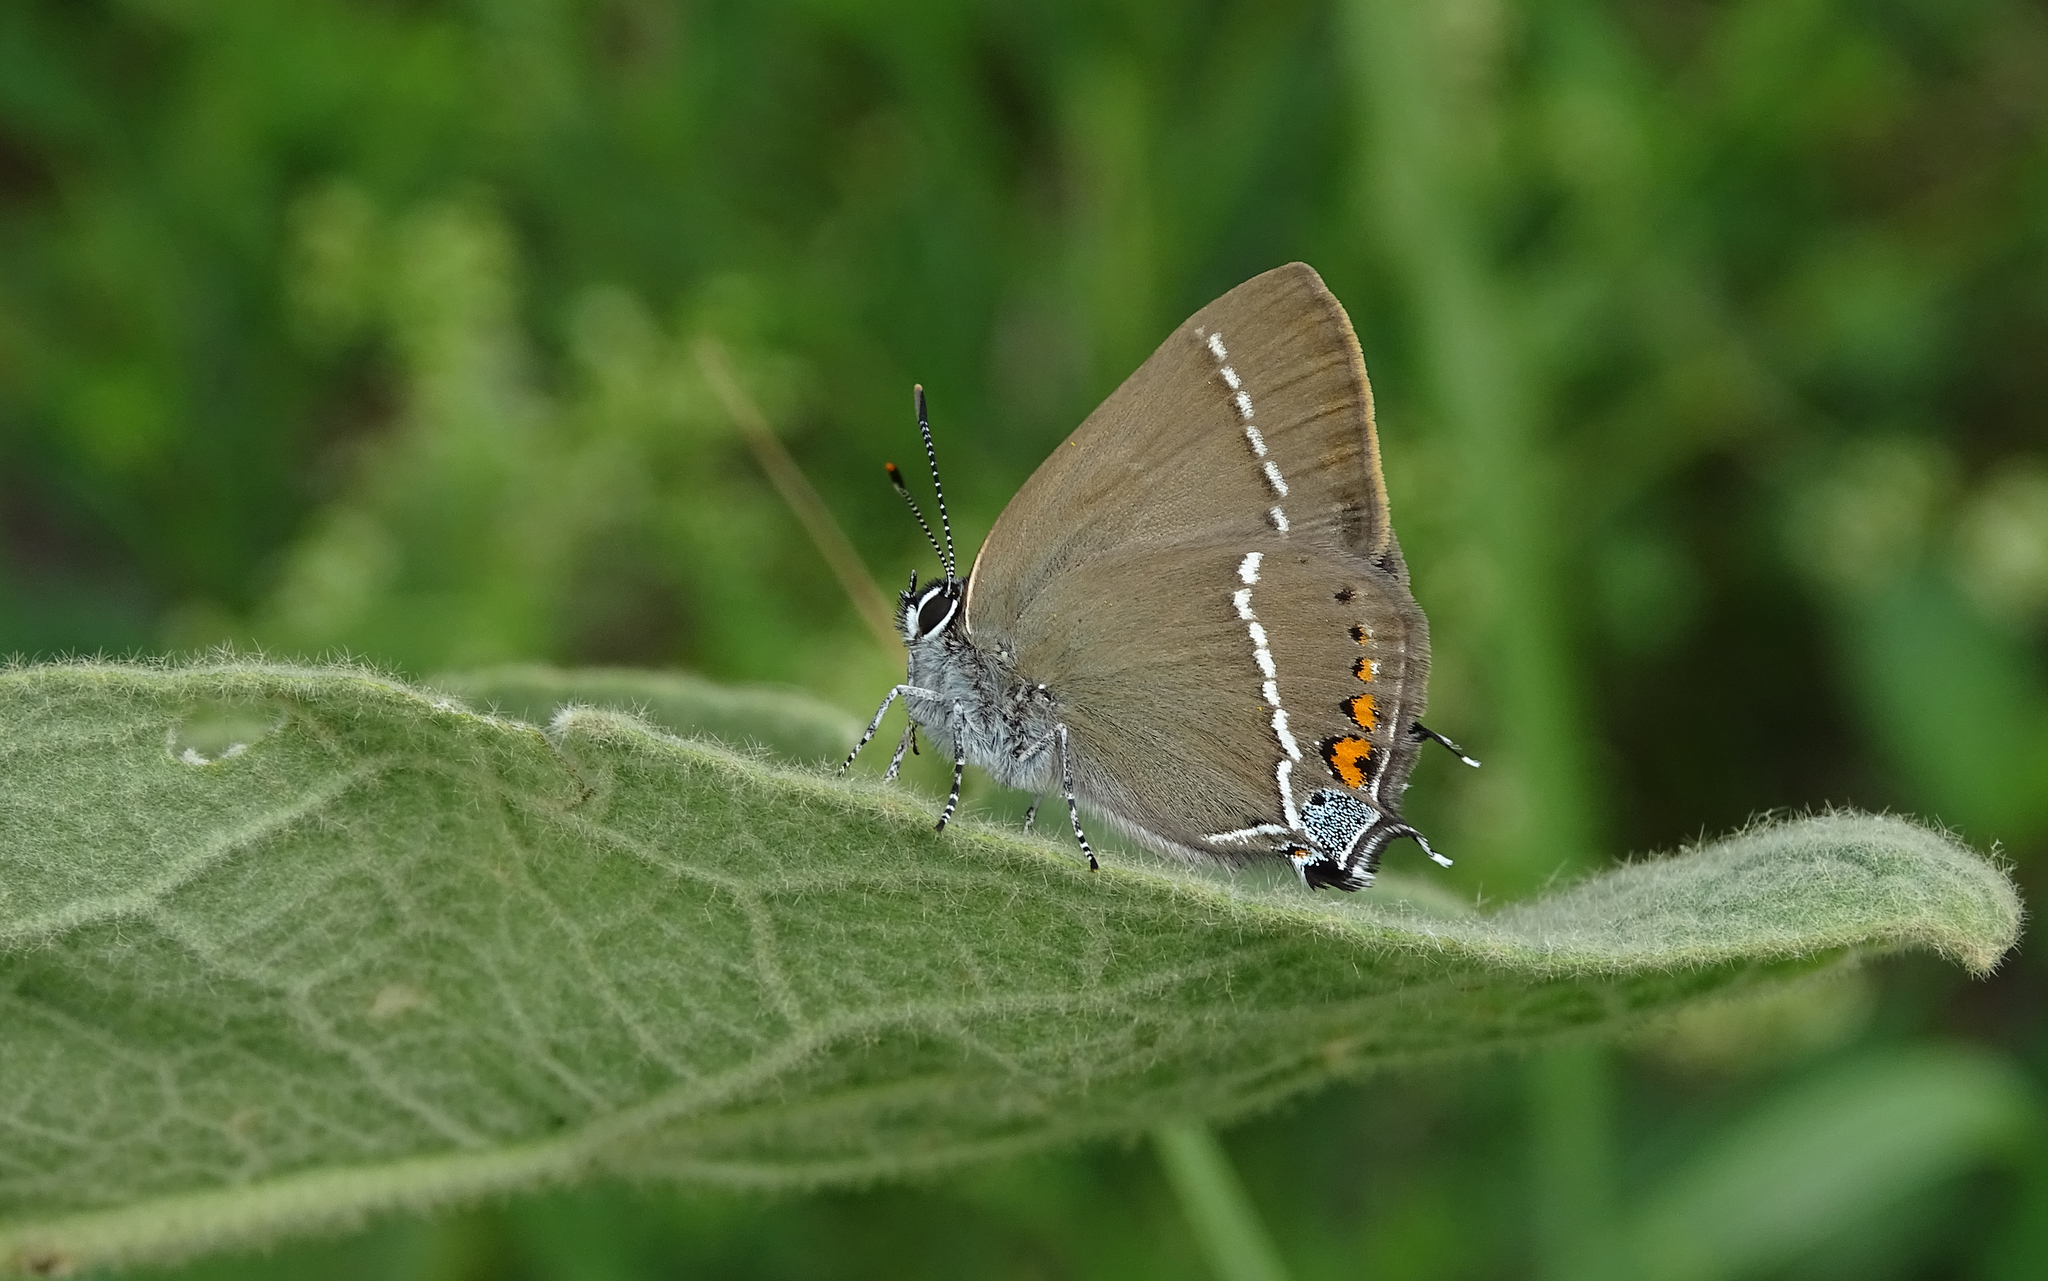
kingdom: Animalia
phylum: Arthropoda
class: Insecta
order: Lepidoptera
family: Lycaenidae
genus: Tuttiola
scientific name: Tuttiola spini
